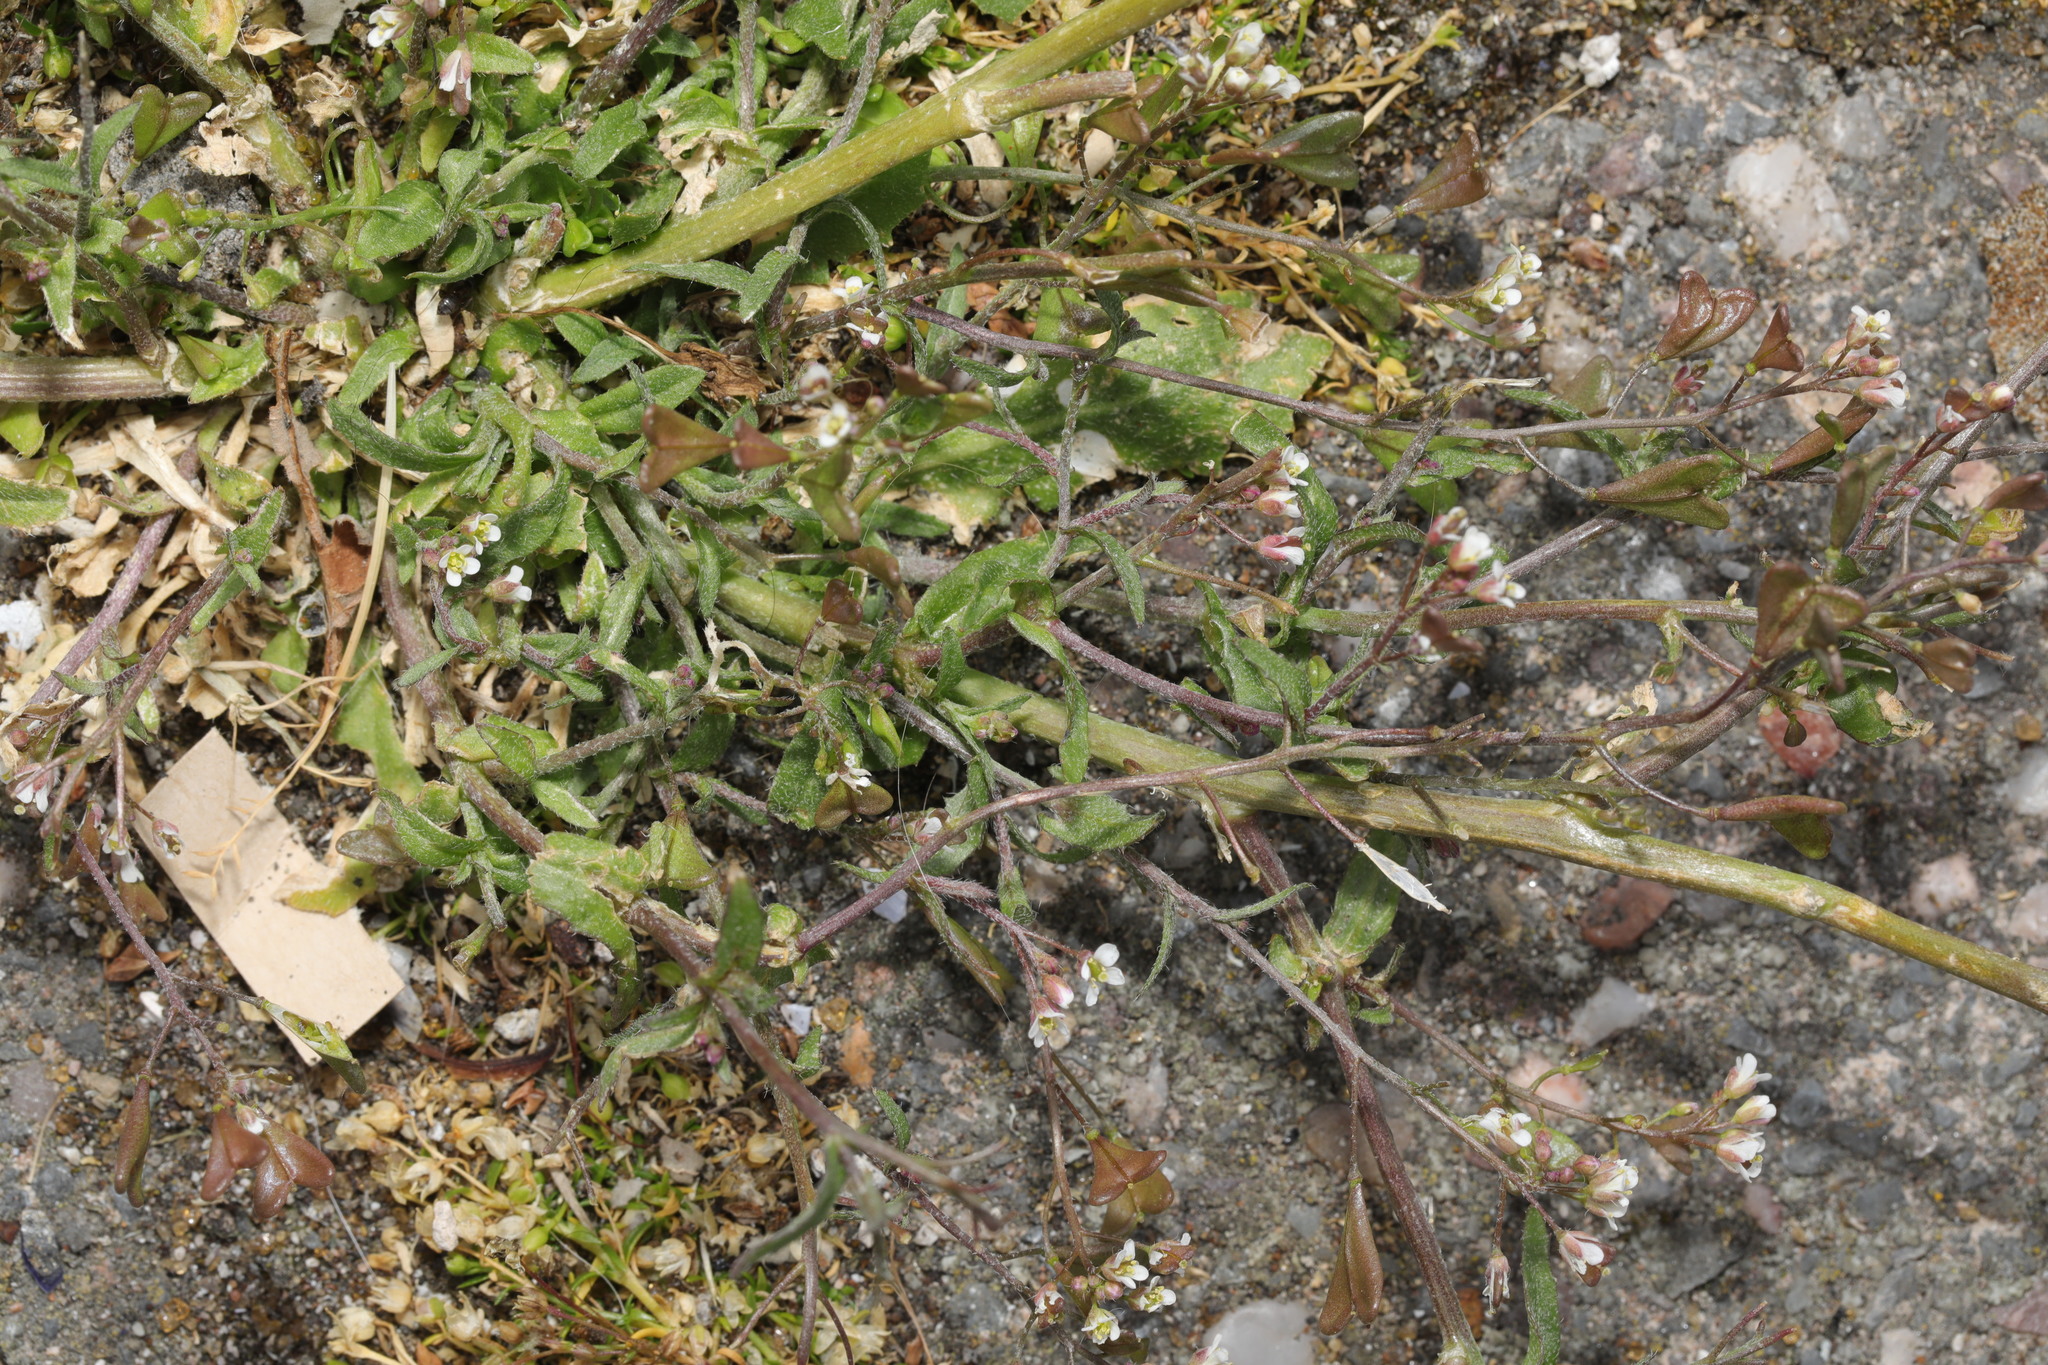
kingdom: Plantae
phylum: Tracheophyta
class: Magnoliopsida
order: Brassicales
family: Brassicaceae
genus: Capsella
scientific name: Capsella bursa-pastoris
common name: Shepherd's purse
